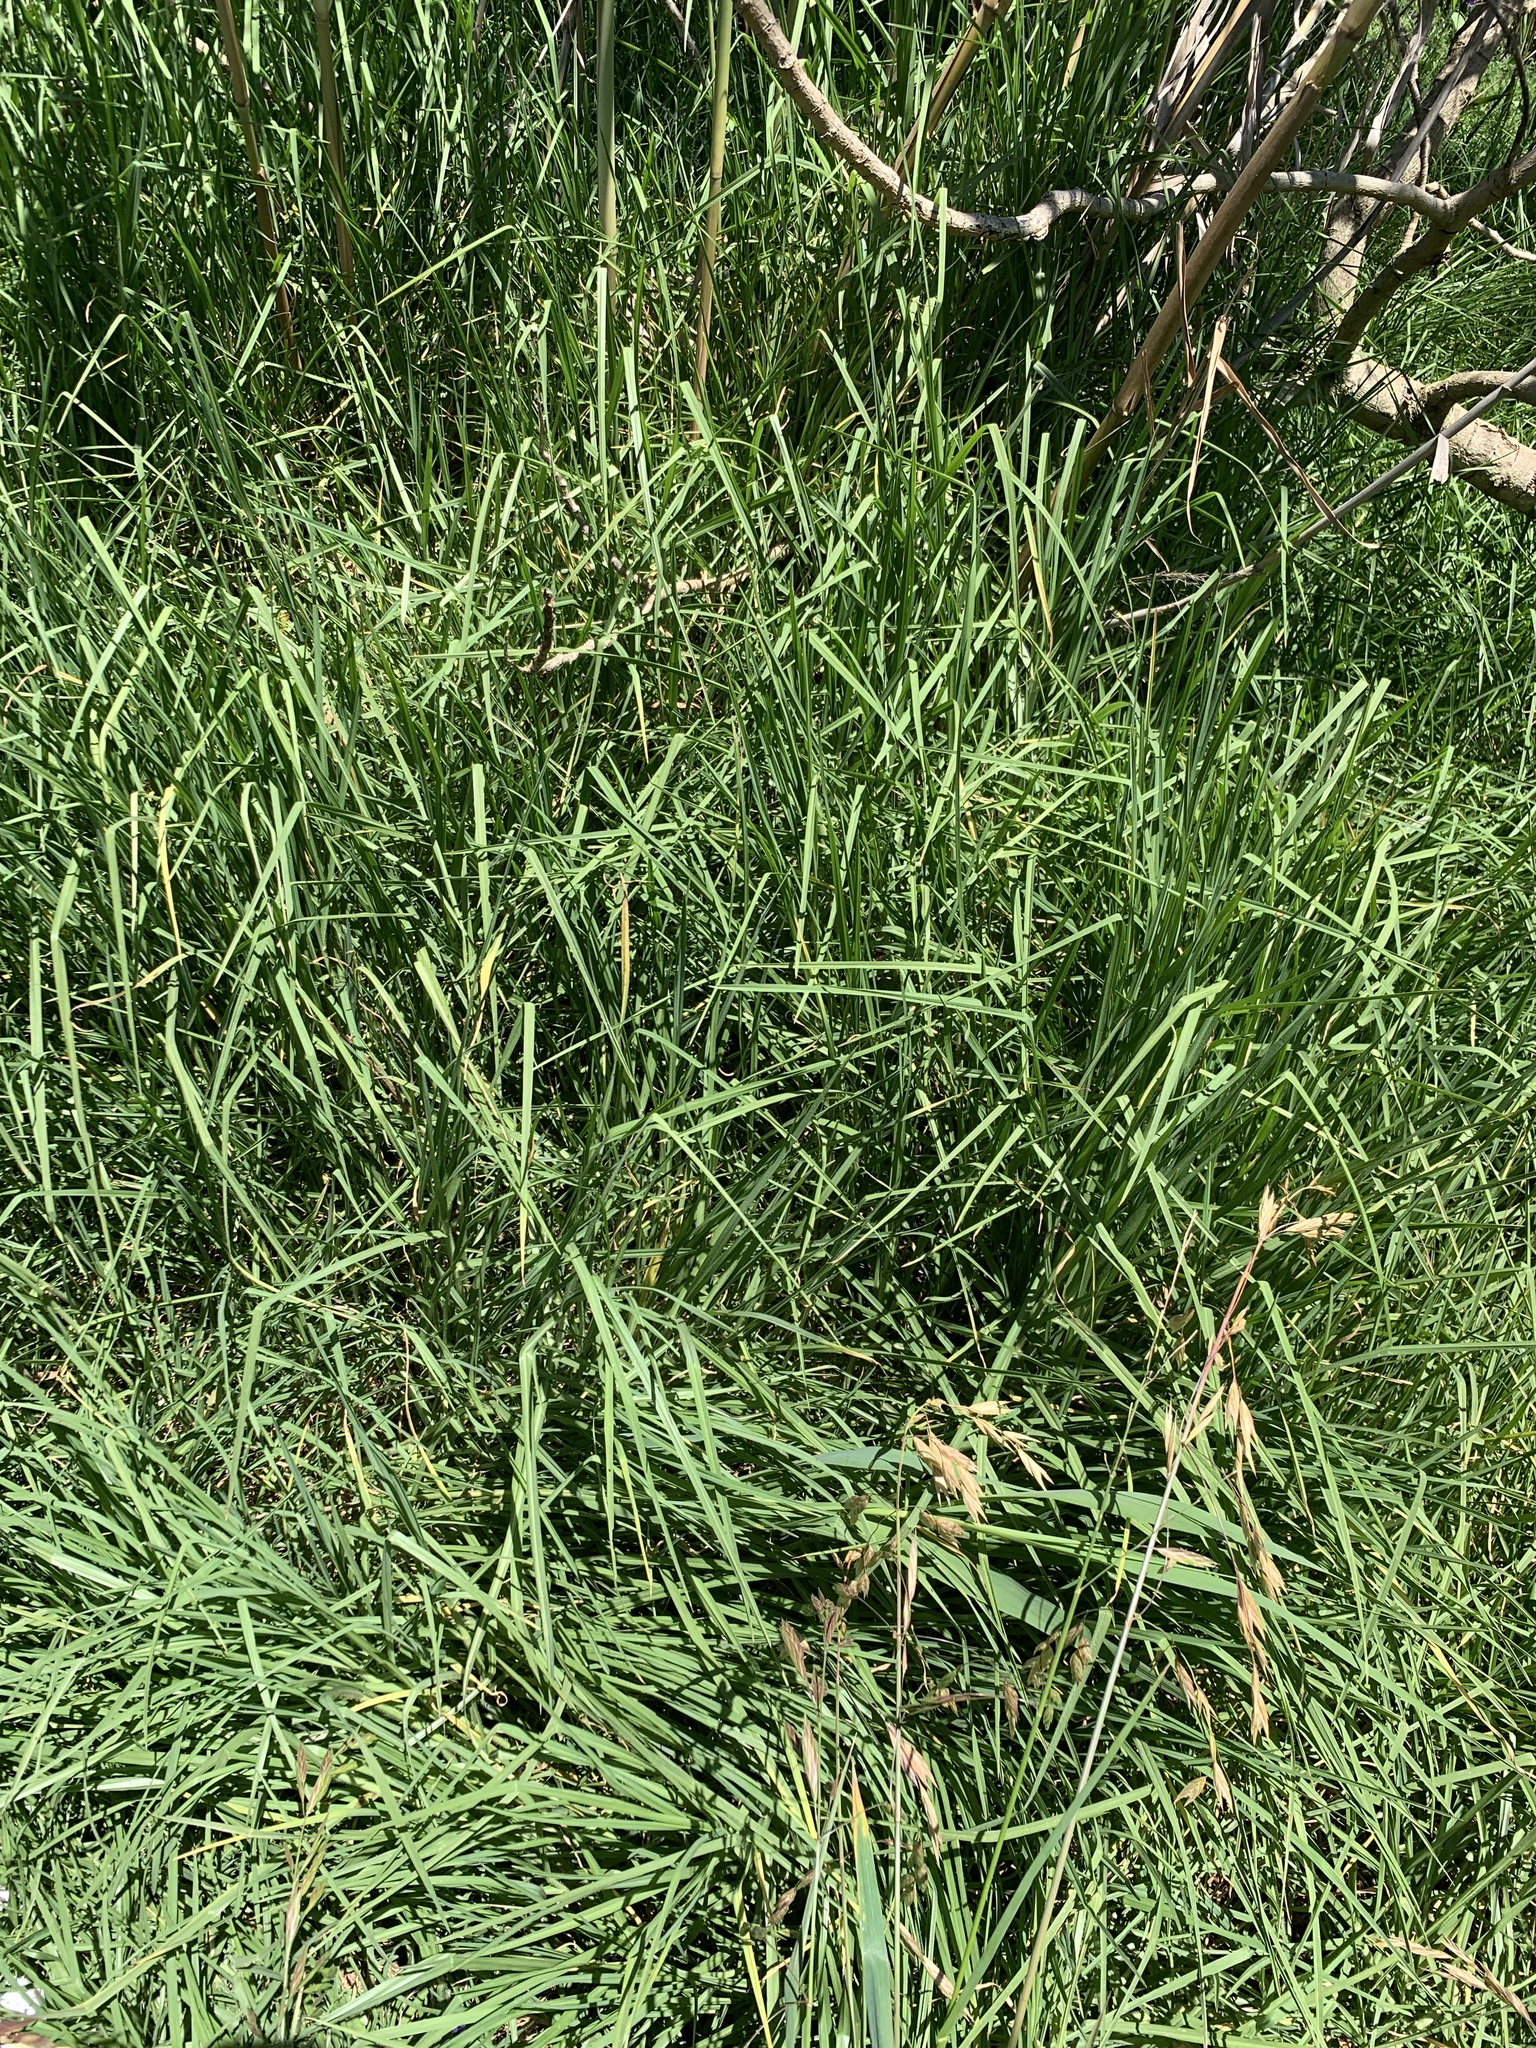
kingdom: Plantae
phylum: Tracheophyta
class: Liliopsida
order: Poales
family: Poaceae
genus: Cenchrus
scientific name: Cenchrus clandestinus
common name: Kikuyugrass
